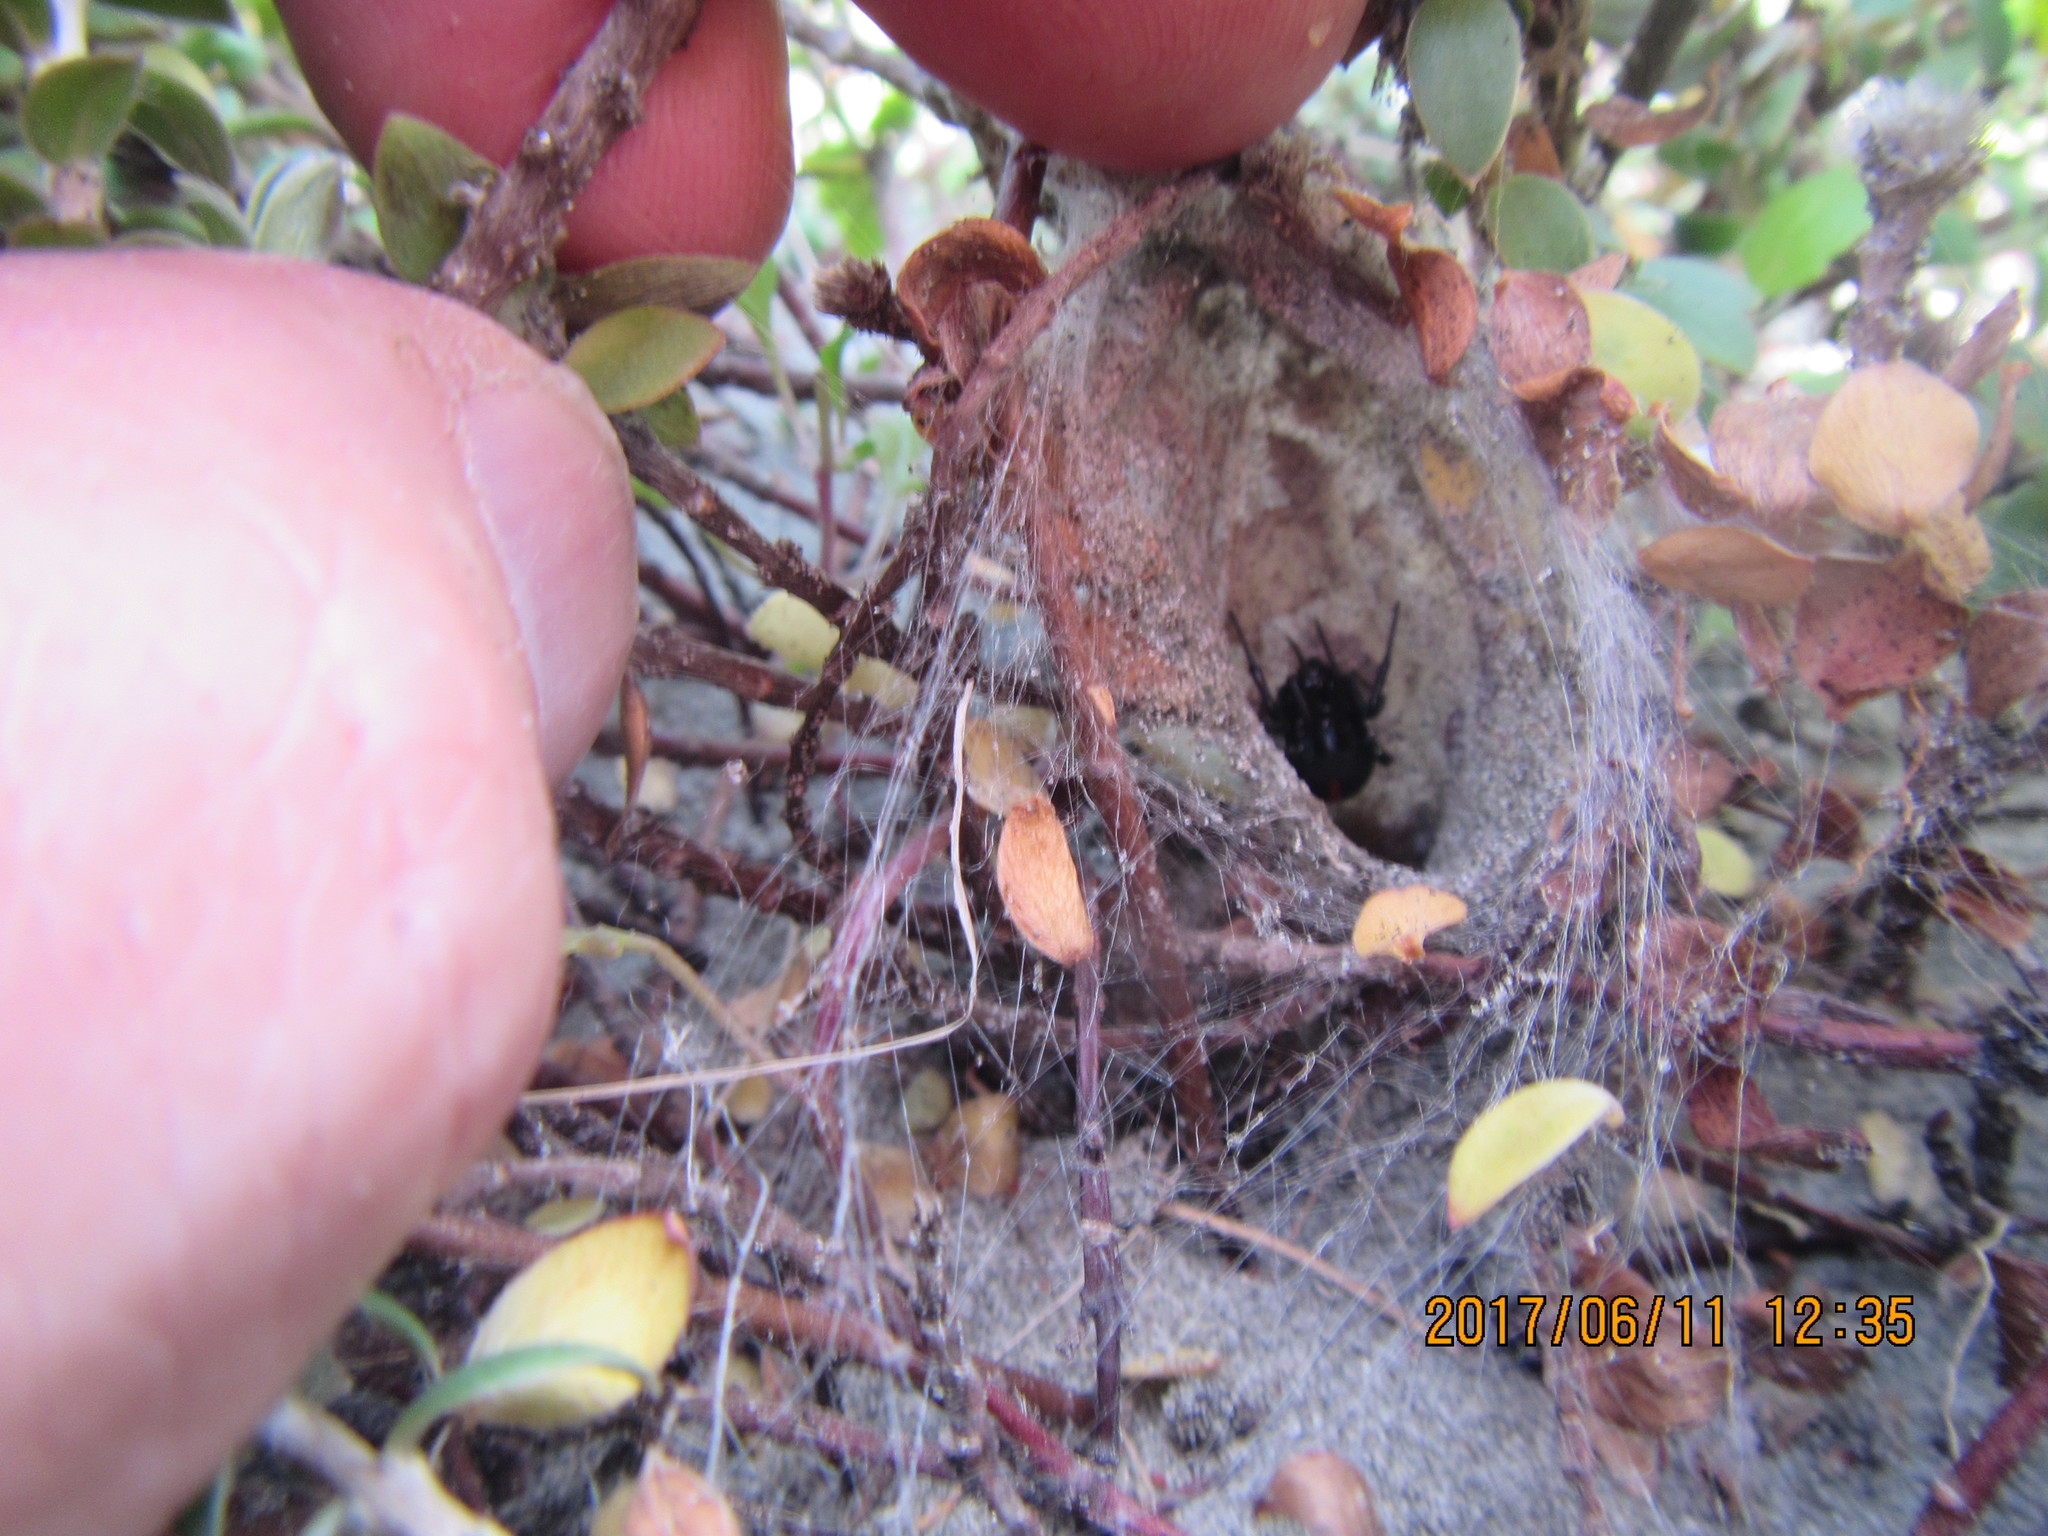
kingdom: Animalia
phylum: Arthropoda
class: Arachnida
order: Araneae
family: Theridiidae
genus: Latrodectus
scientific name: Latrodectus katipo
